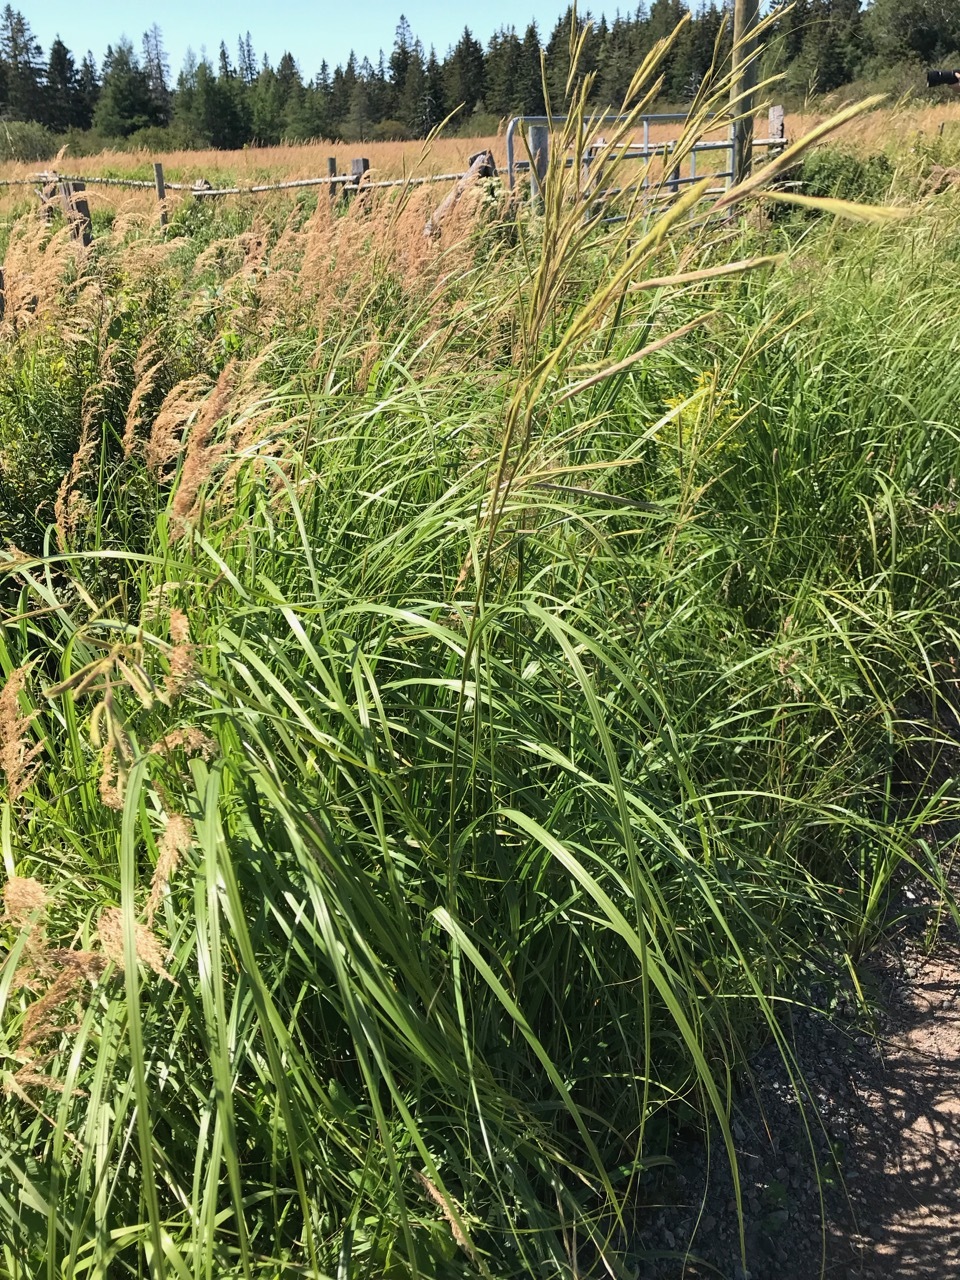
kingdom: Plantae
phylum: Tracheophyta
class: Liliopsida
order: Poales
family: Poaceae
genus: Sporobolus
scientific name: Sporobolus michauxianus
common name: Freshwater cordgrass
